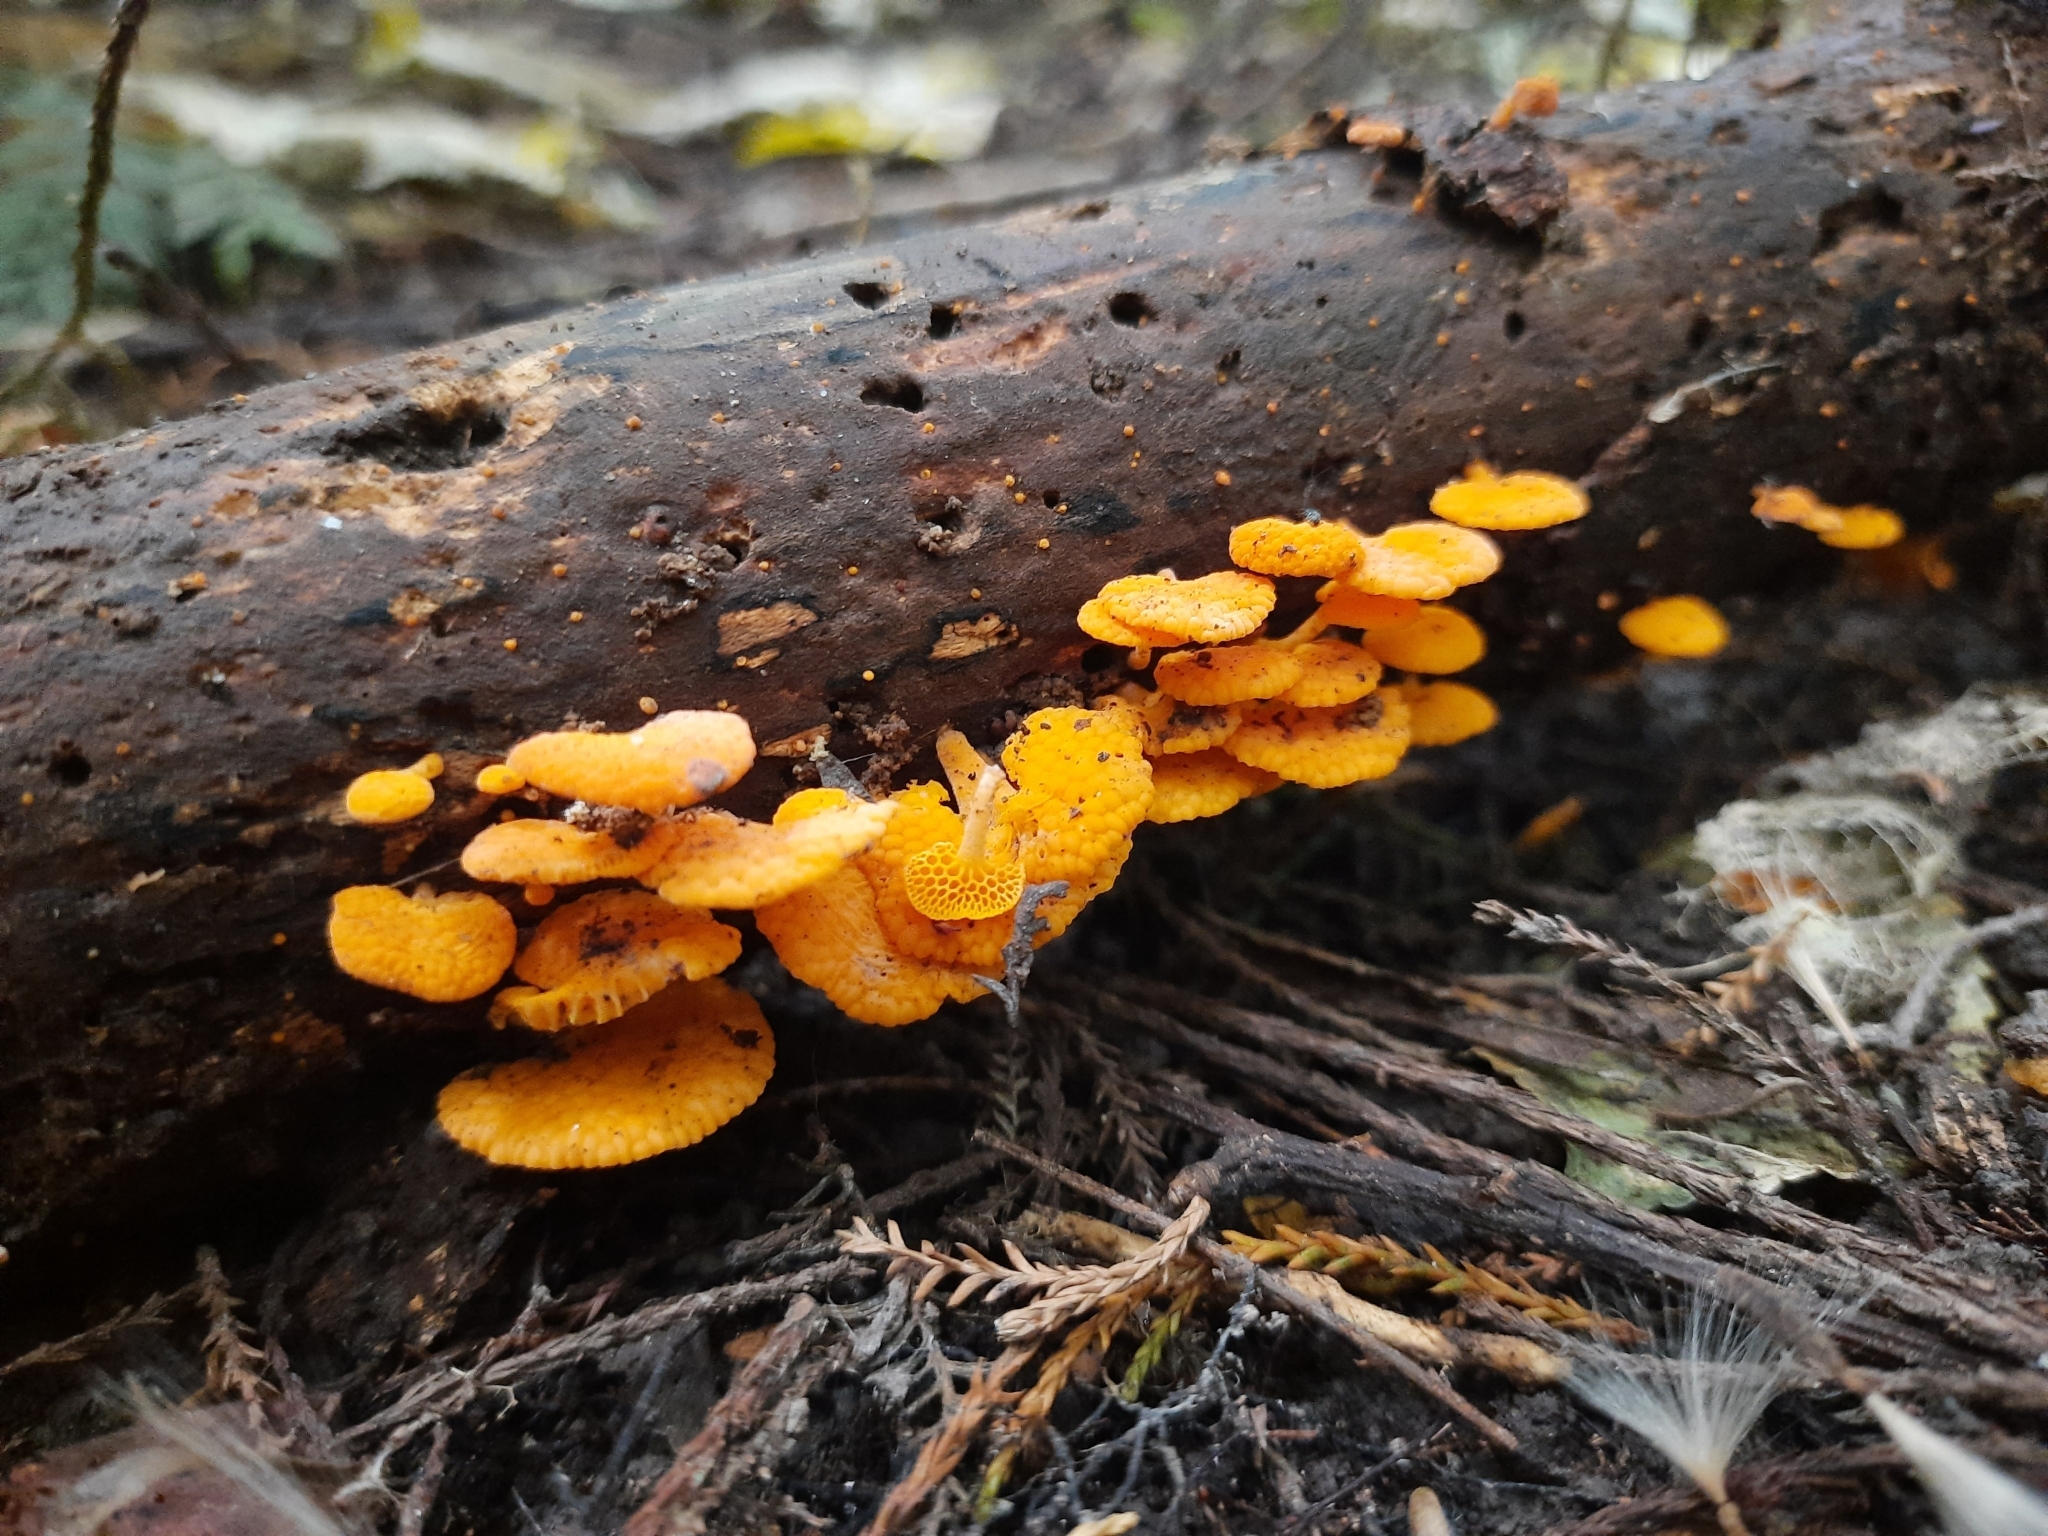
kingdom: Fungi
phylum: Basidiomycota
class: Agaricomycetes
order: Agaricales
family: Mycenaceae
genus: Favolaschia
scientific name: Favolaschia claudopus
